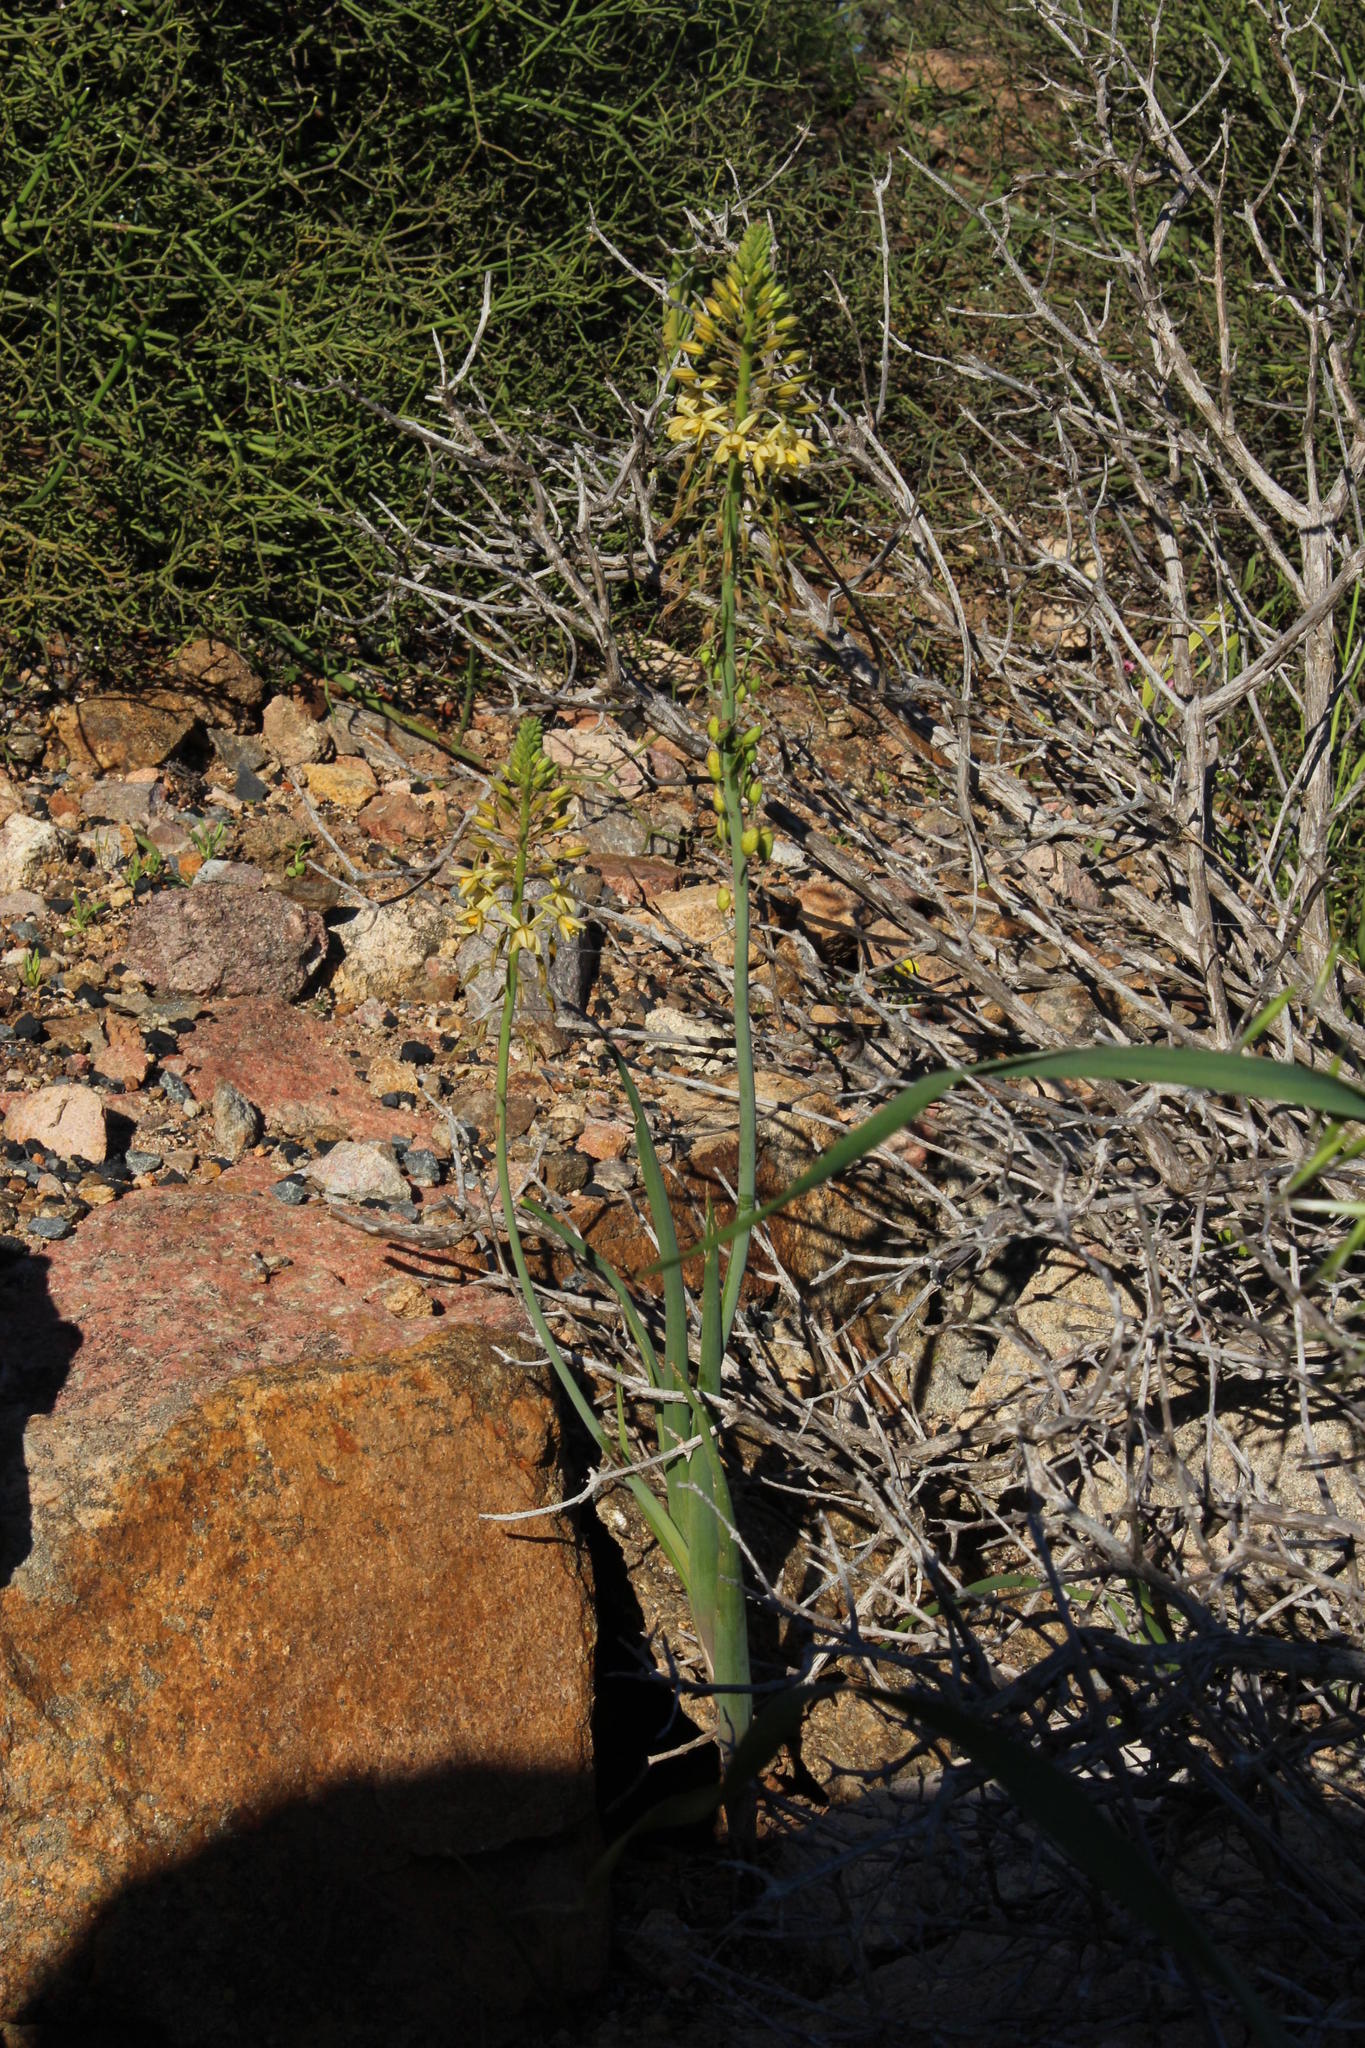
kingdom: Plantae
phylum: Tracheophyta
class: Liliopsida
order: Asparagales
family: Asphodelaceae
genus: Bulbine
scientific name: Bulbine praemorsa
